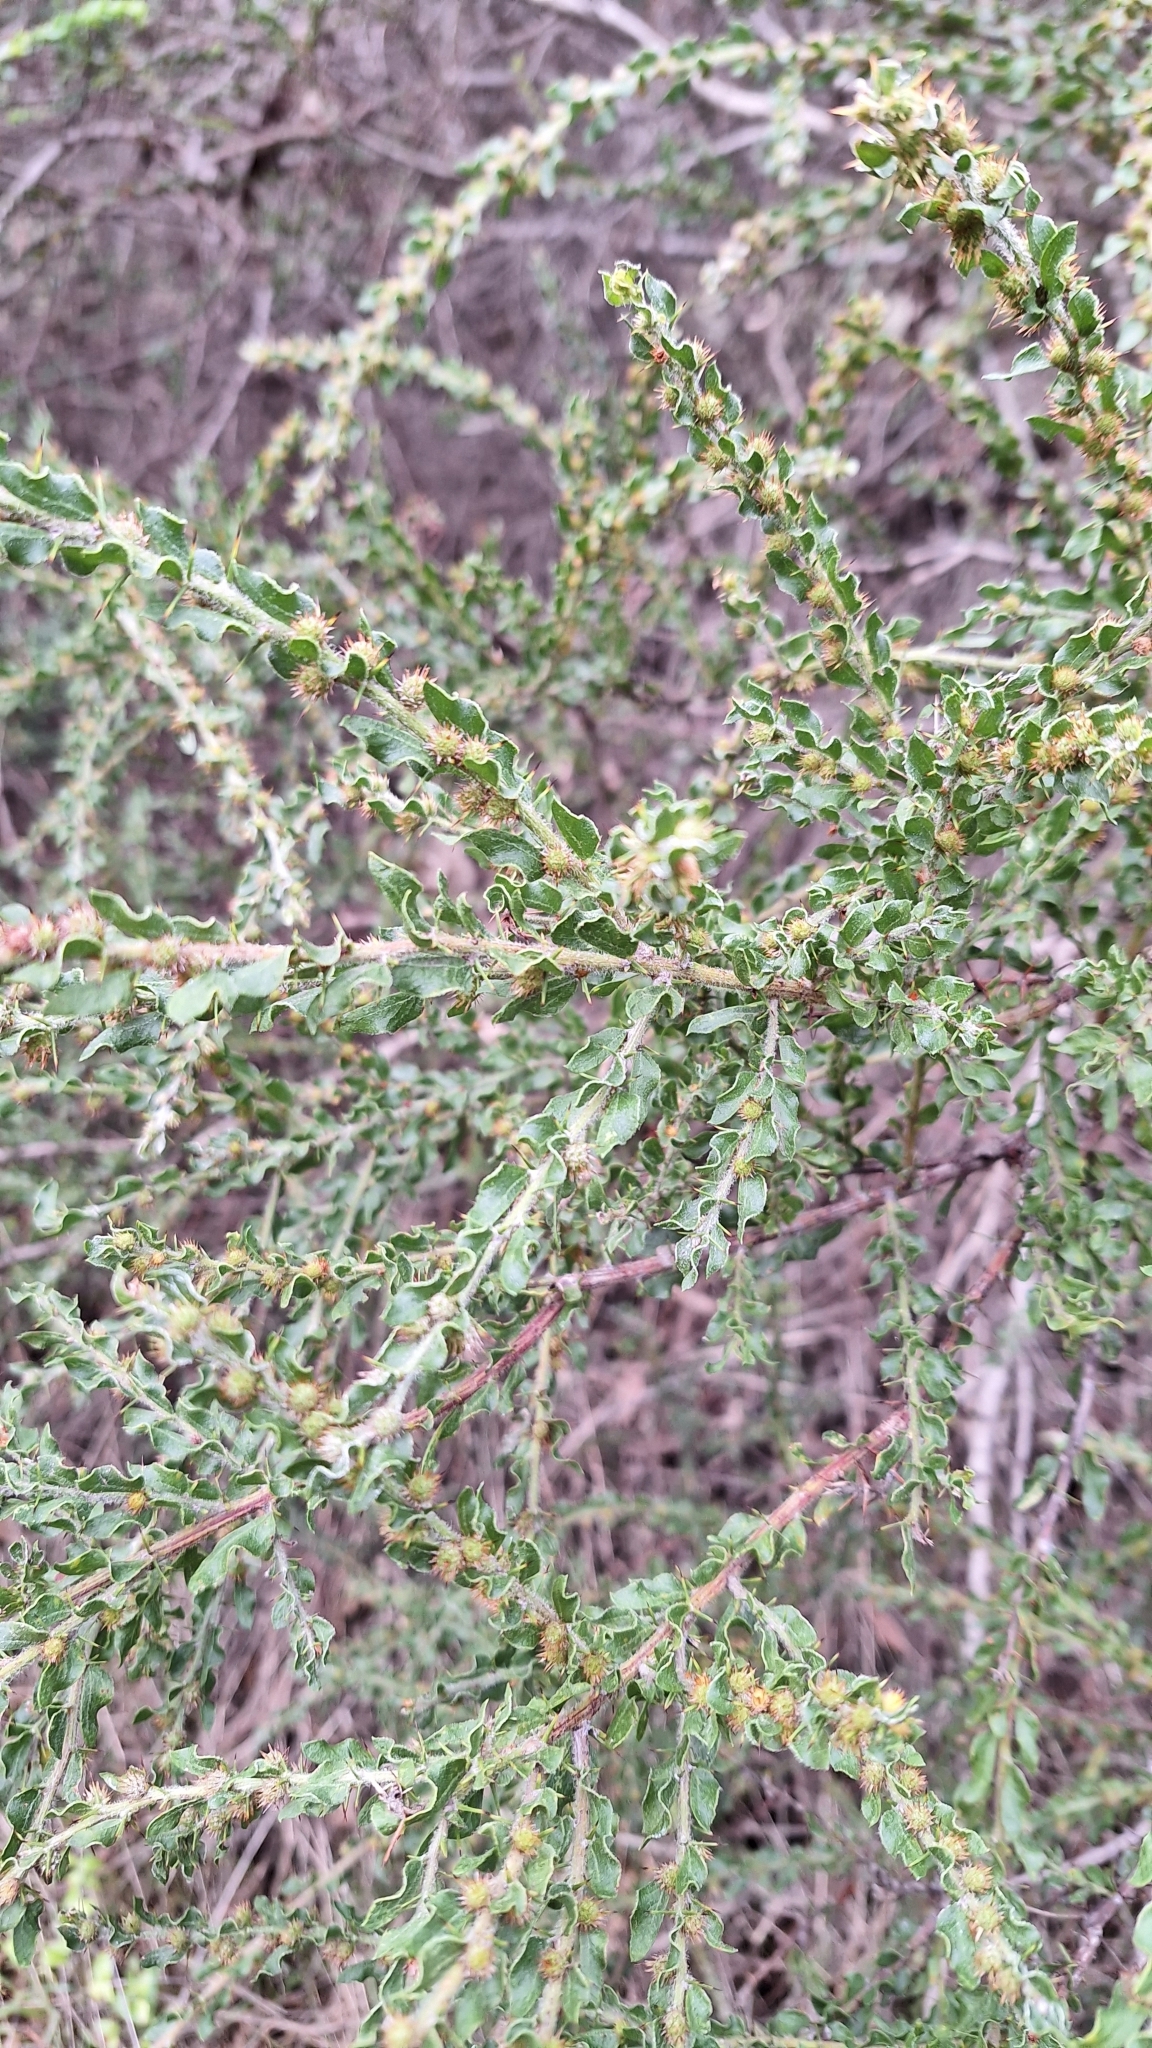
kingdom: Plantae
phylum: Tracheophyta
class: Magnoliopsida
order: Fabales
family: Fabaceae
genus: Acacia
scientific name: Acacia paradoxa
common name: Paradox acacia
